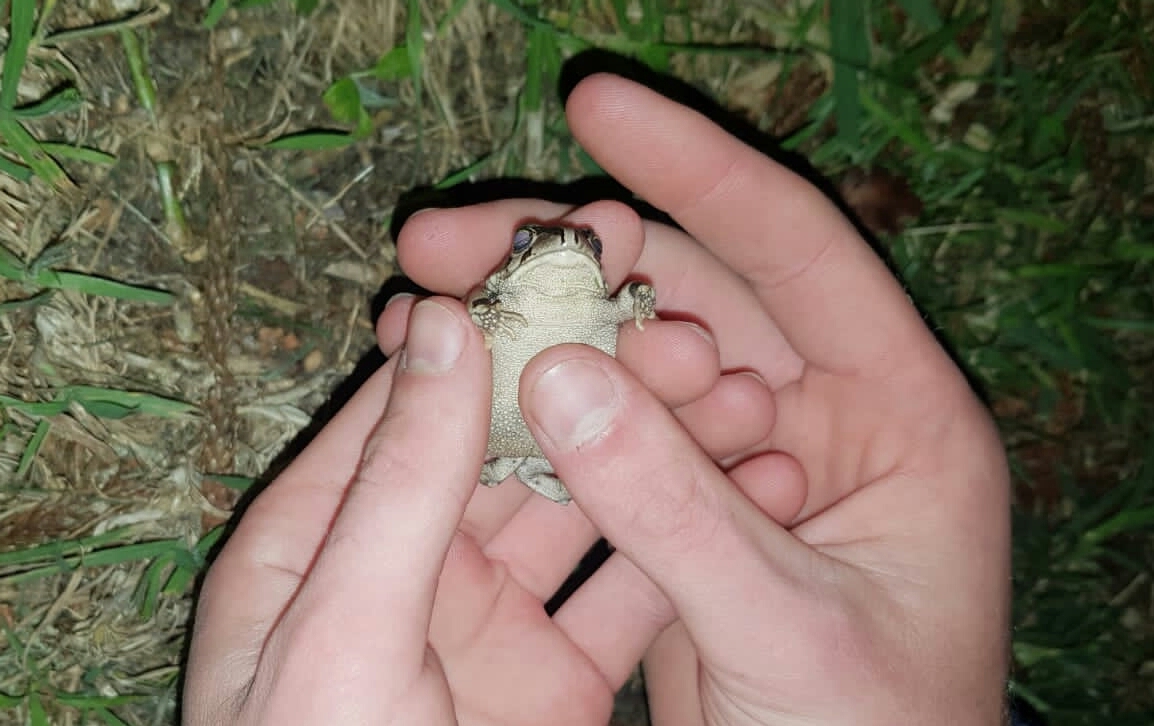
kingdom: Animalia
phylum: Chordata
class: Amphibia
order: Anura
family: Bufonidae
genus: Sclerophrys
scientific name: Sclerophrys capensis
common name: Ranger’s toad
